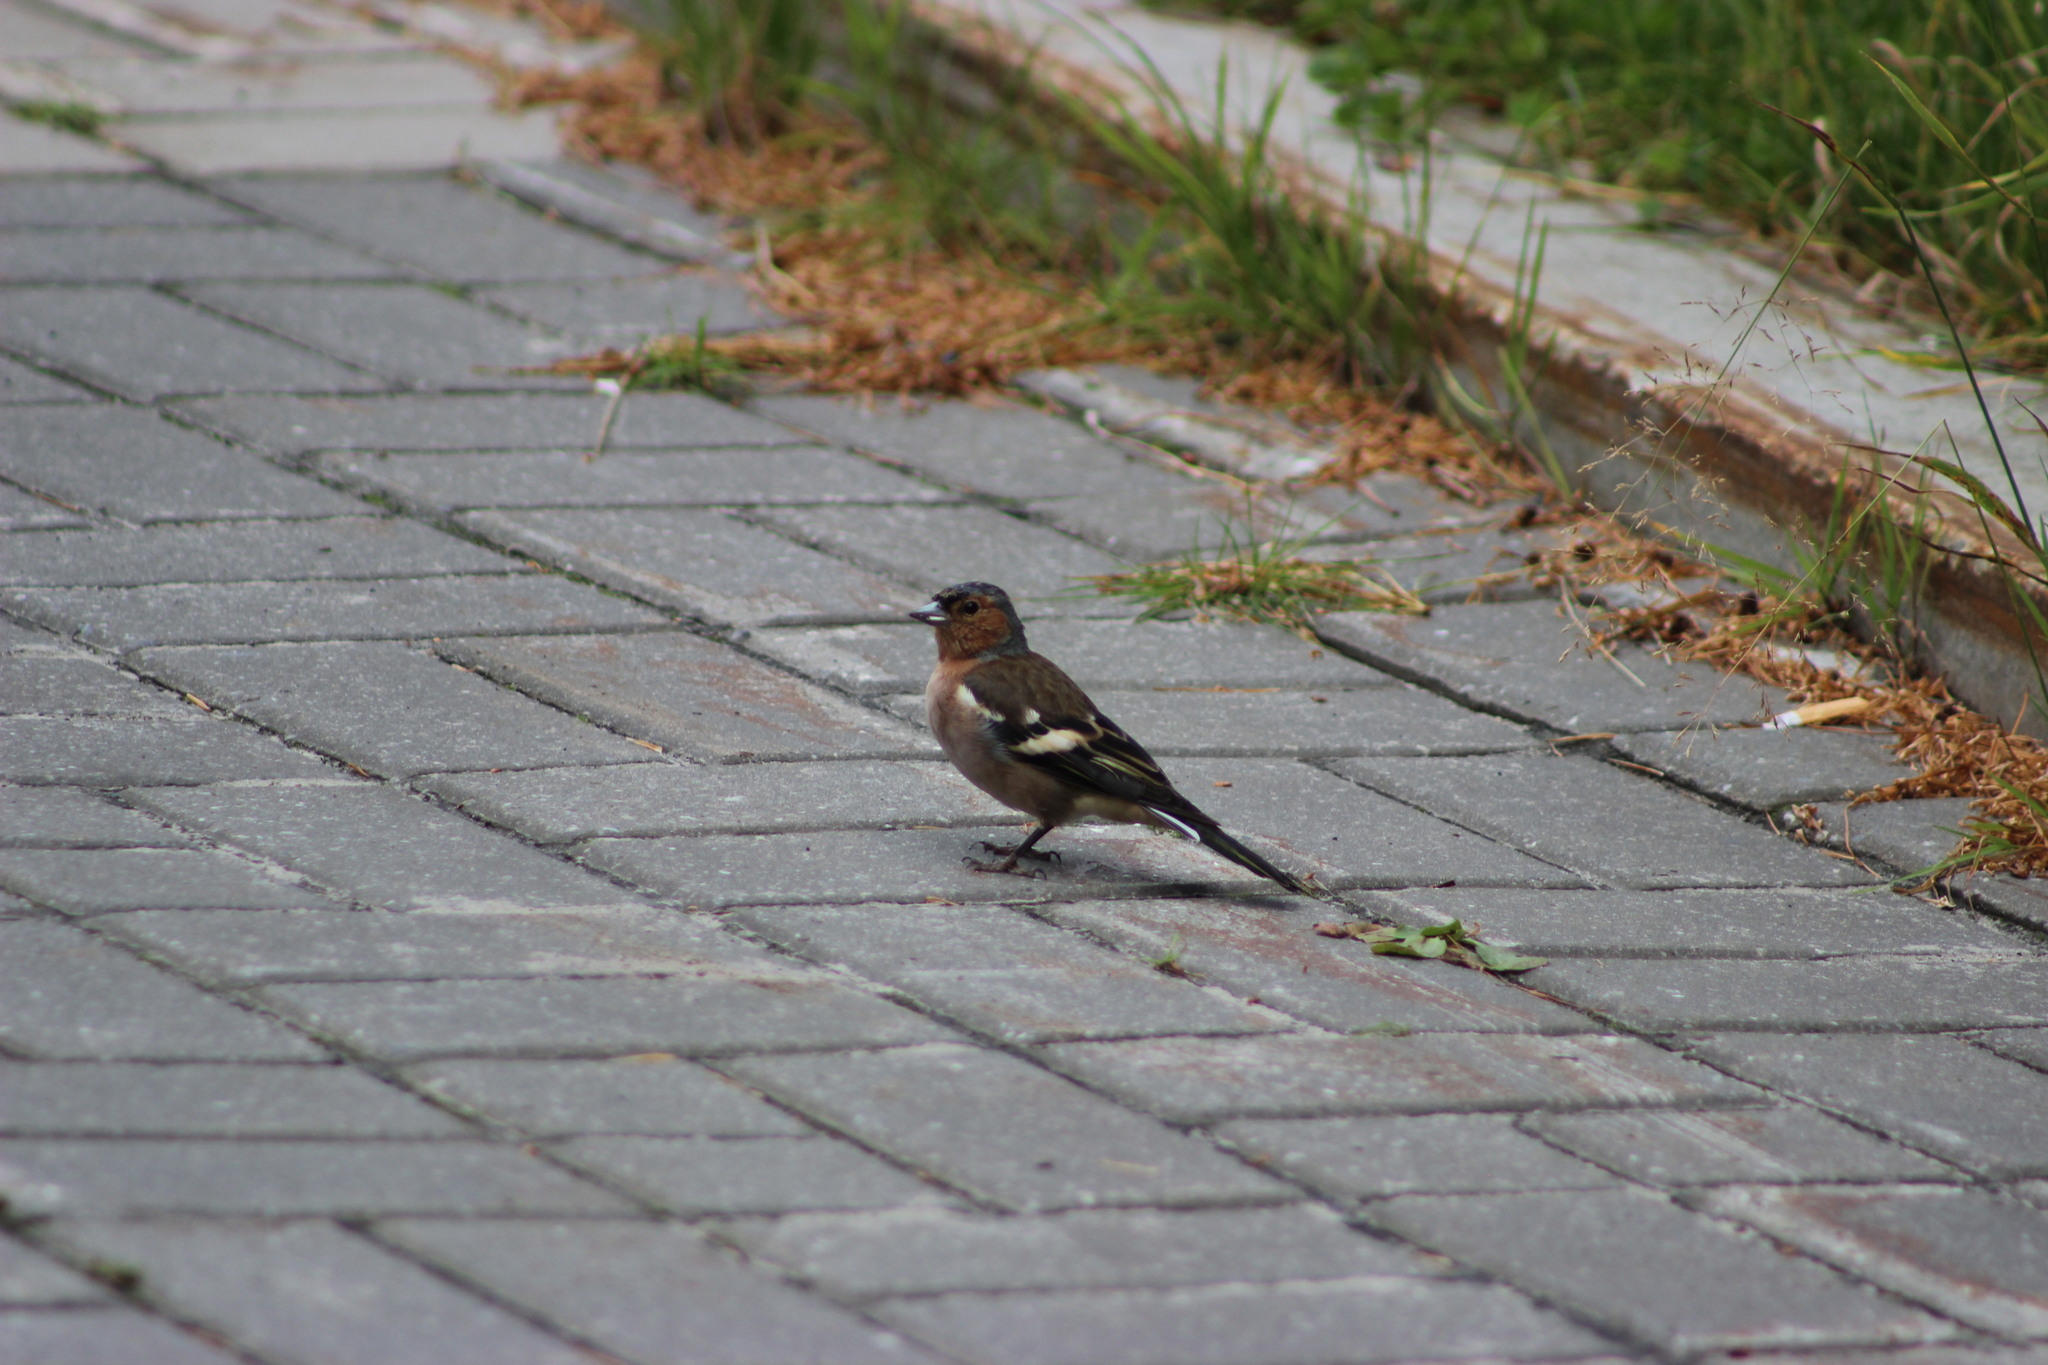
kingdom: Animalia
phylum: Chordata
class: Aves
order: Passeriformes
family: Fringillidae
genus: Fringilla
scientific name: Fringilla coelebs
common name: Common chaffinch
